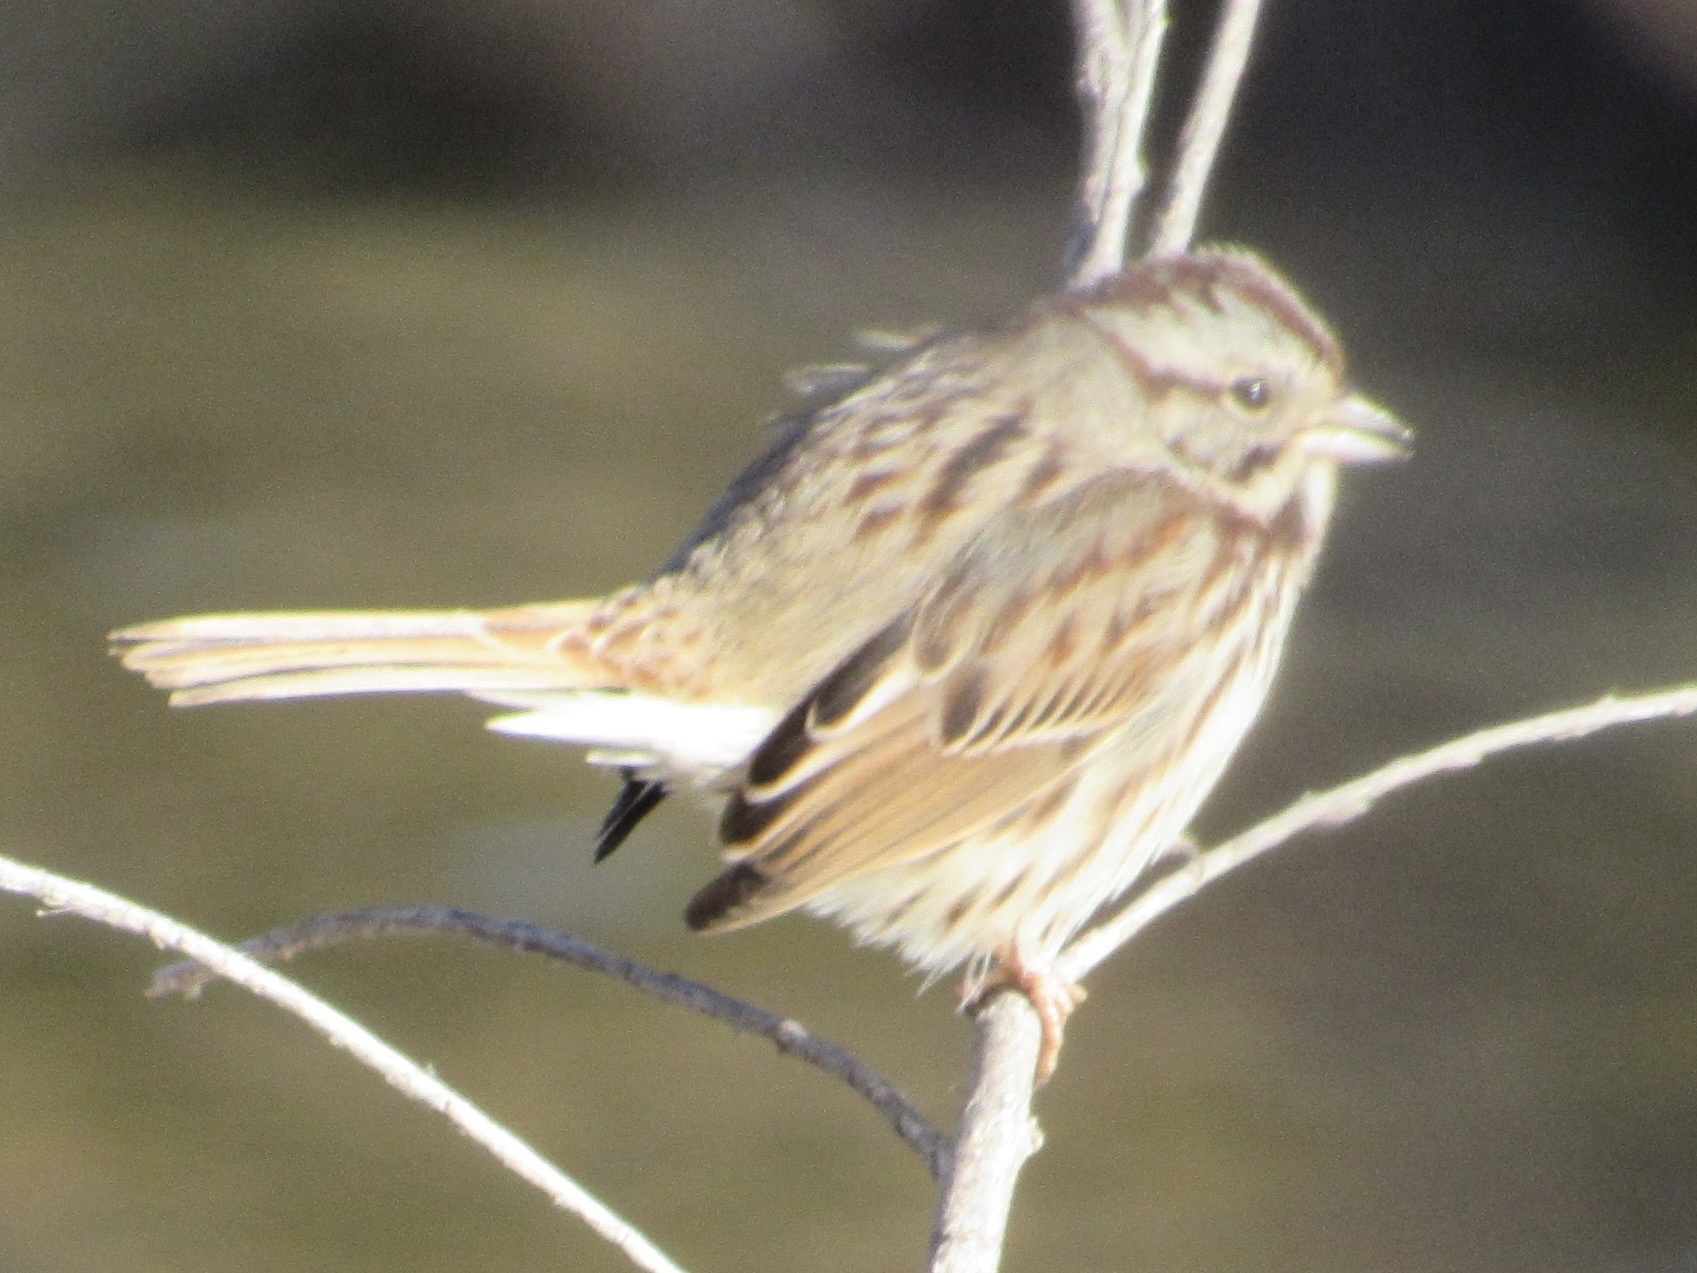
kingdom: Animalia
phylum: Chordata
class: Aves
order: Passeriformes
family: Passerellidae
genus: Melospiza
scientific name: Melospiza melodia
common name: Song sparrow
